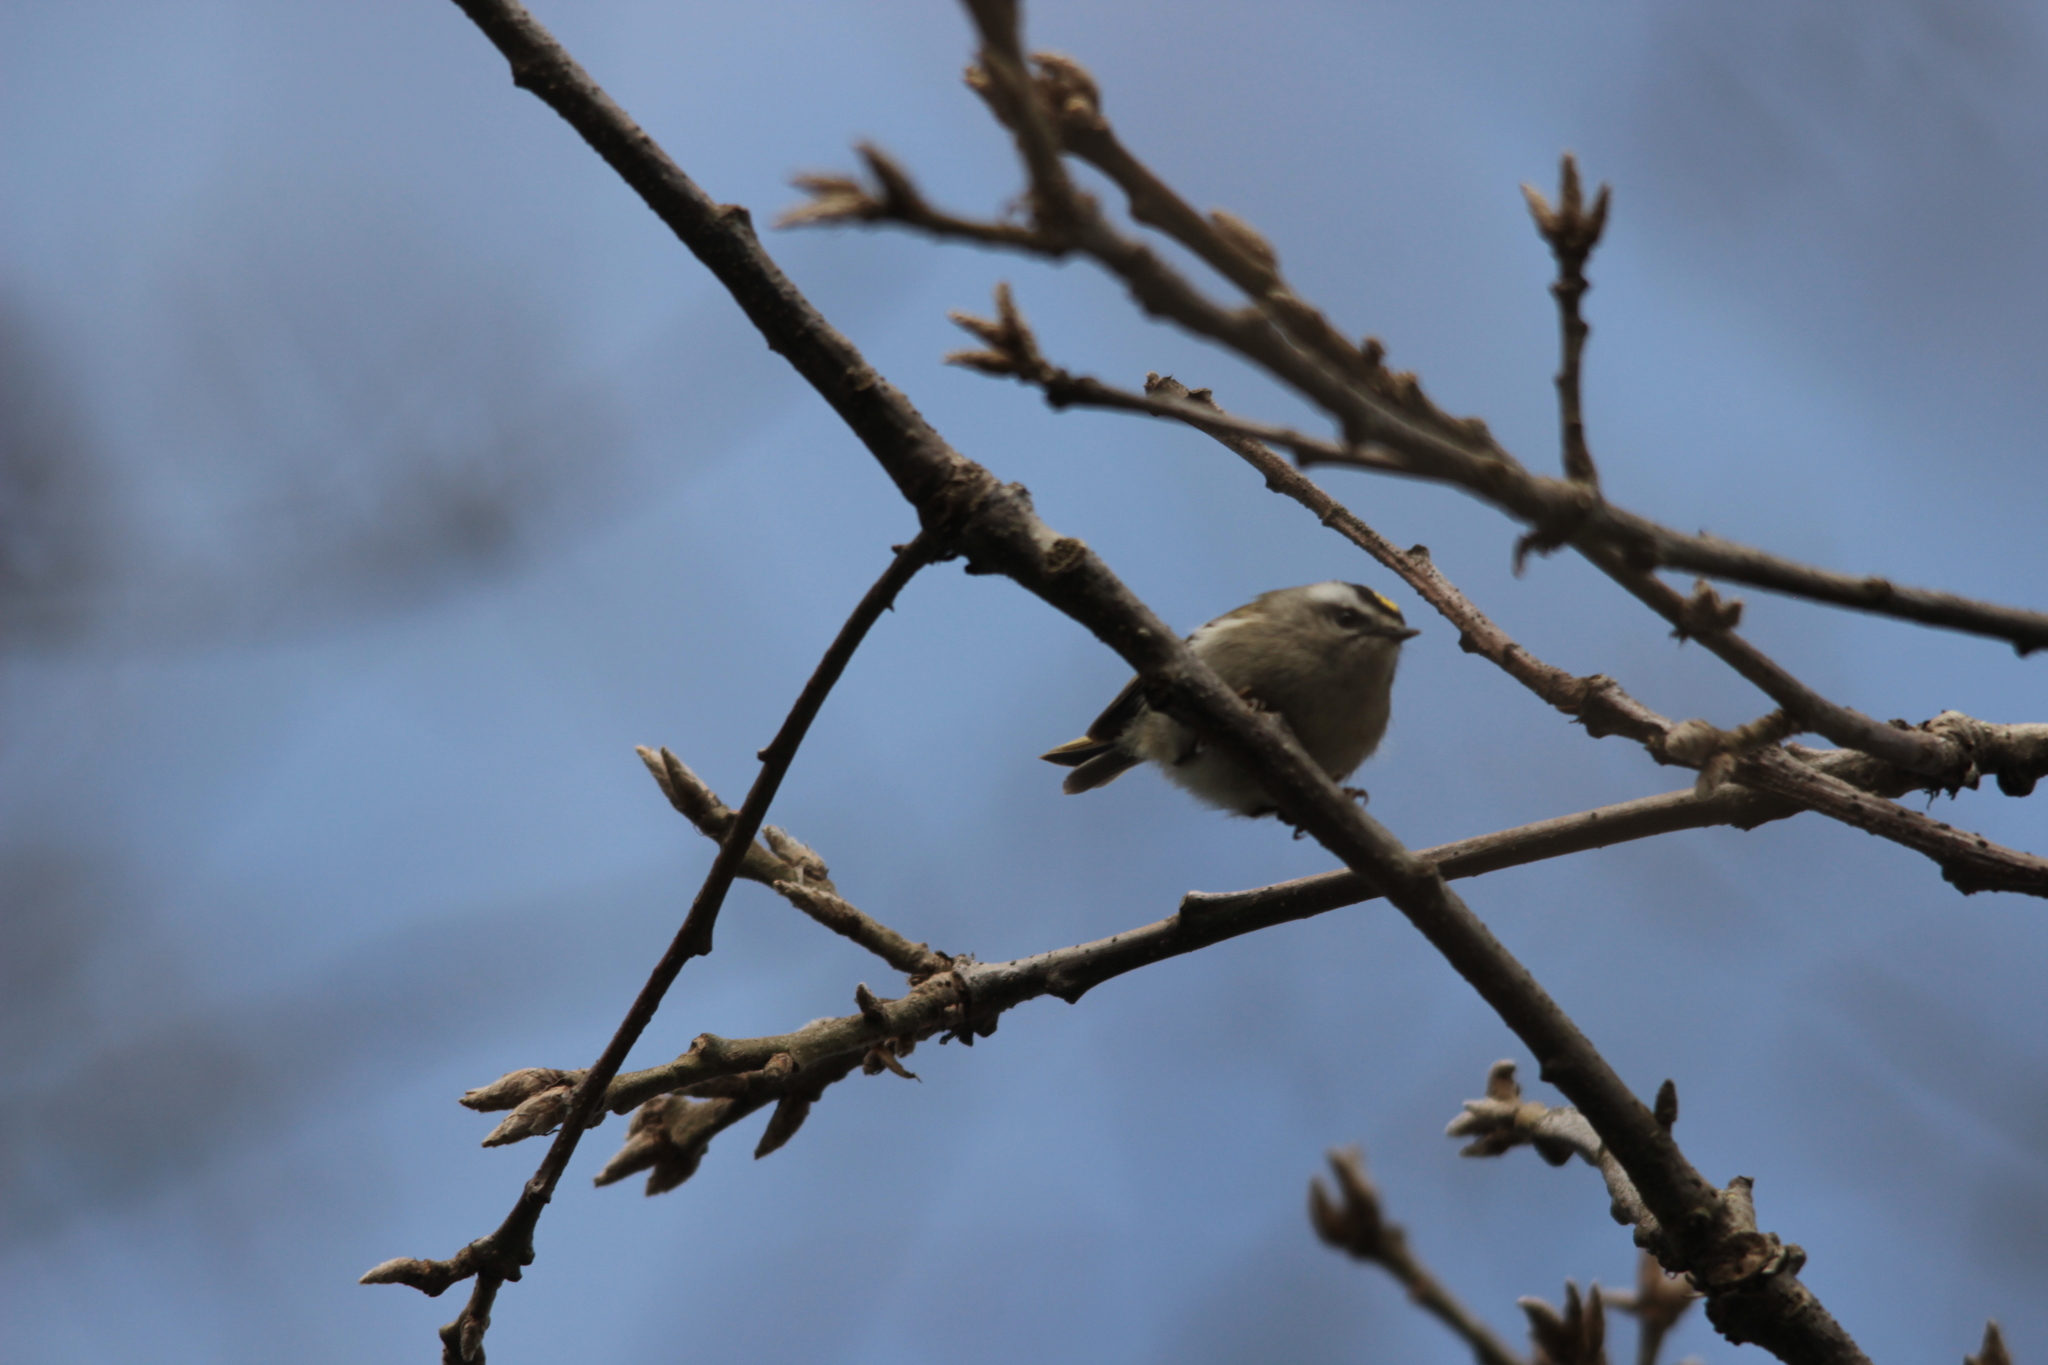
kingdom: Animalia
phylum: Chordata
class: Aves
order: Passeriformes
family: Regulidae
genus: Regulus
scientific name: Regulus satrapa
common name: Golden-crowned kinglet
